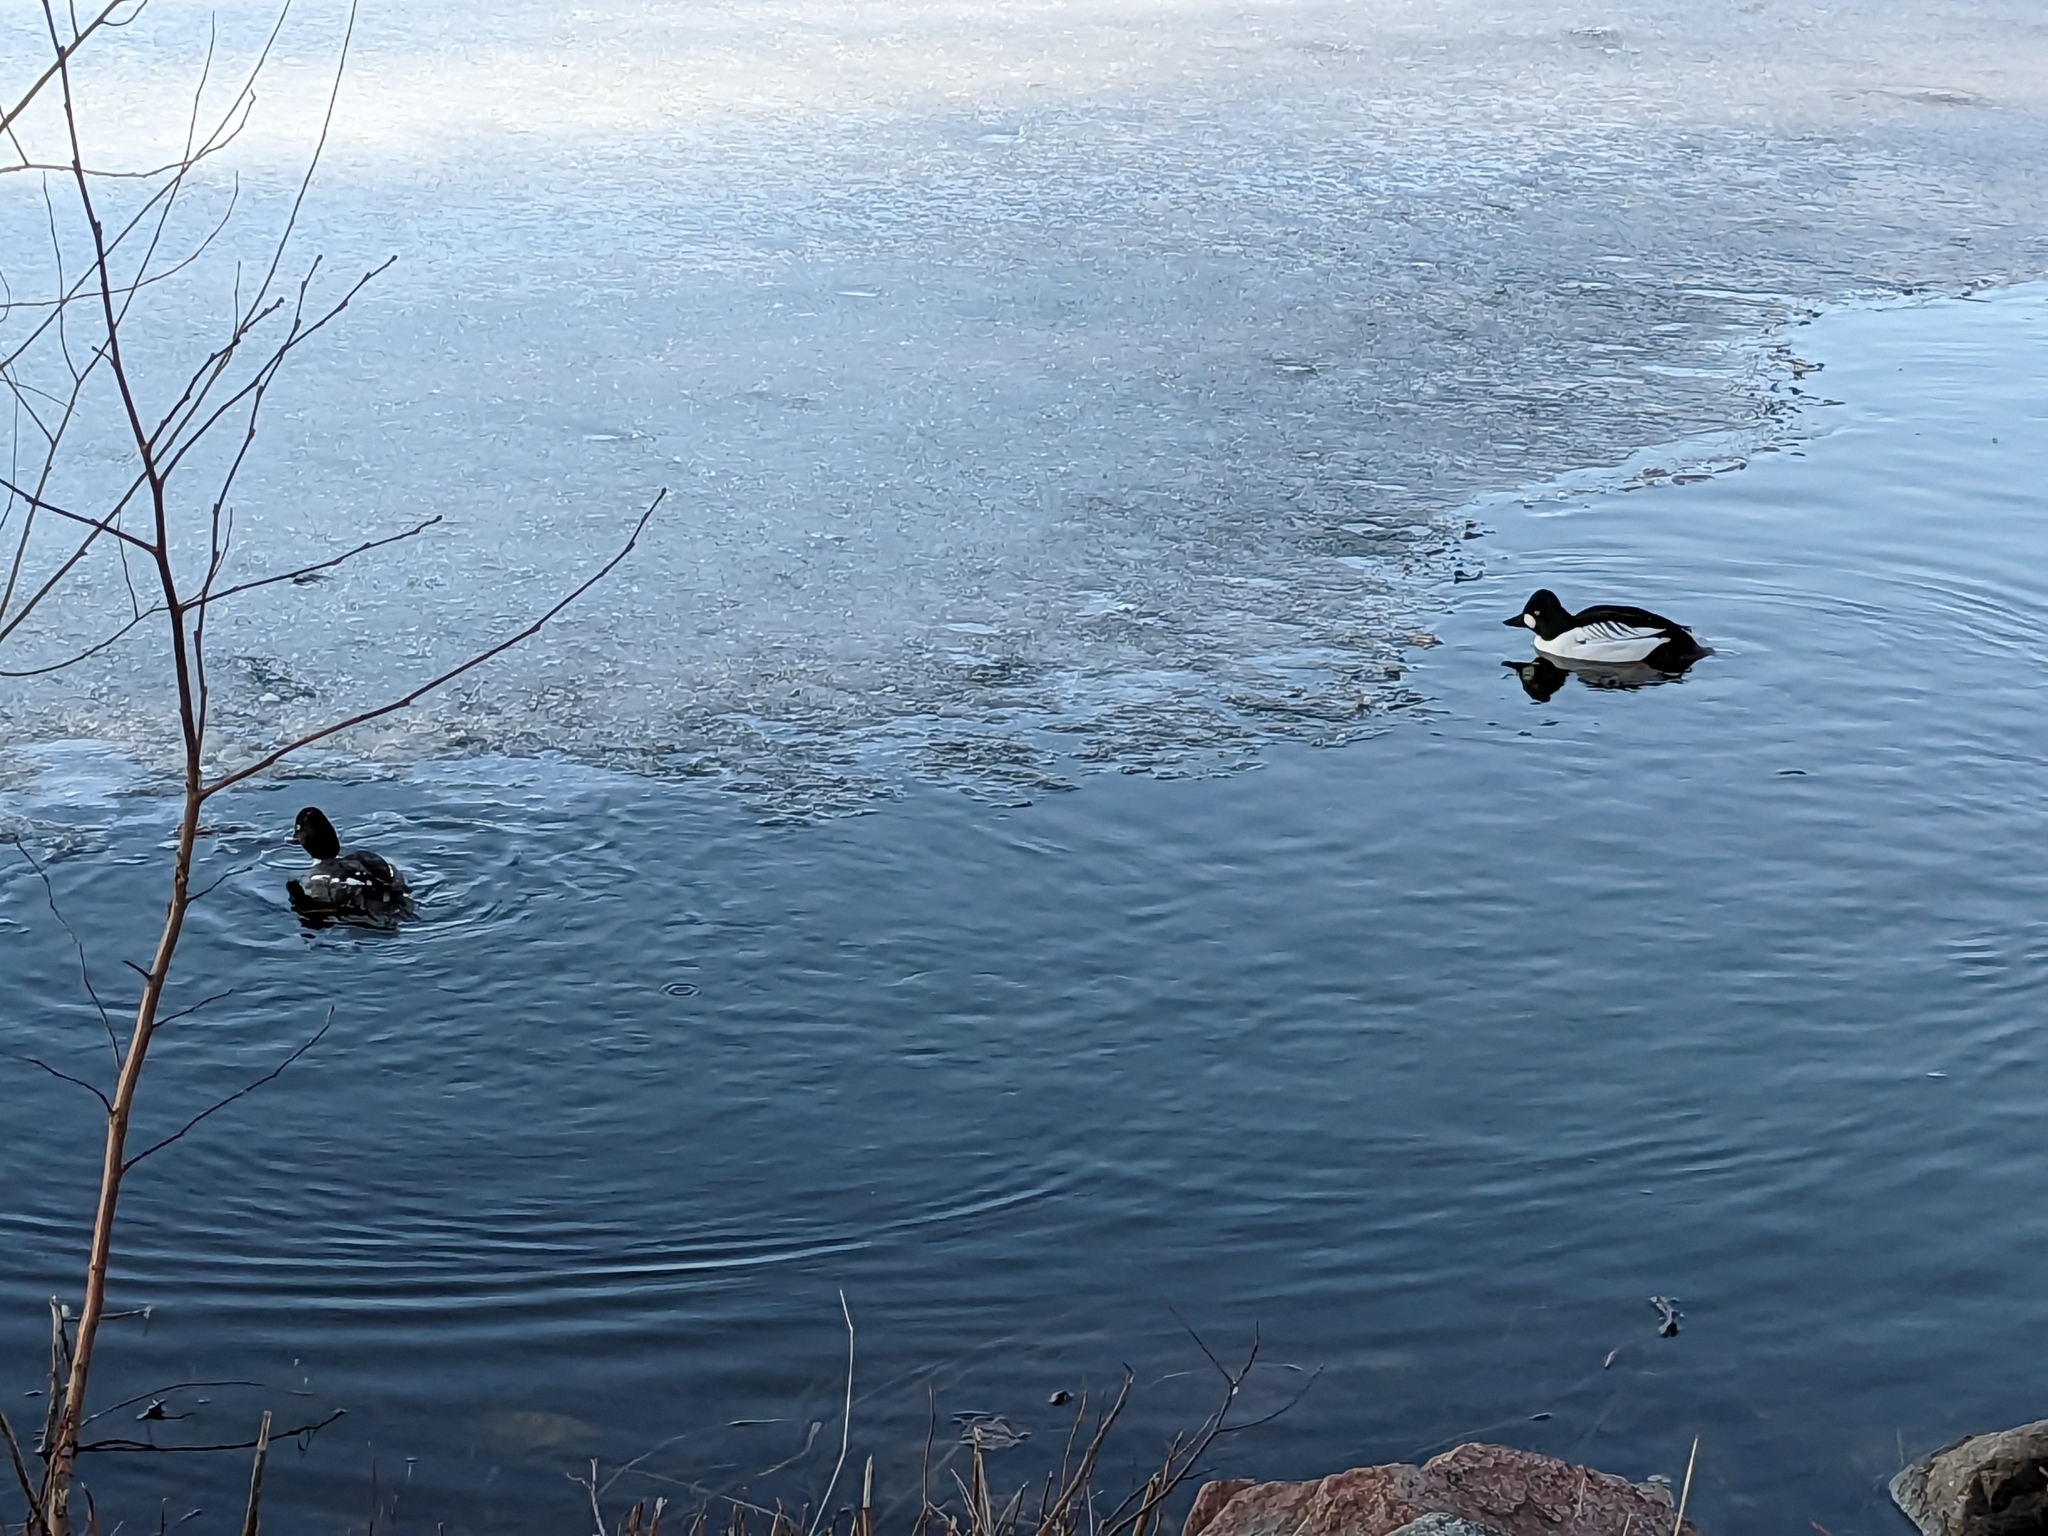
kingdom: Animalia
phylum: Chordata
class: Aves
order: Anseriformes
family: Anatidae
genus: Bucephala
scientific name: Bucephala clangula
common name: Common goldeneye
